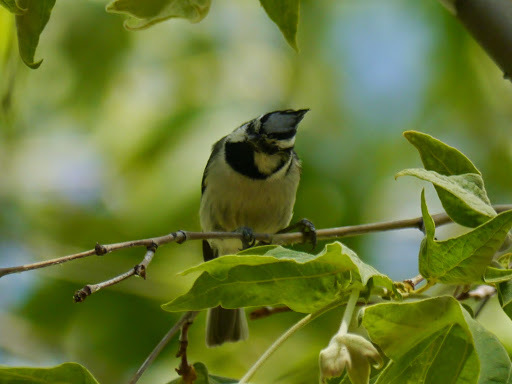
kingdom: Animalia
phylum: Chordata
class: Aves
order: Passeriformes
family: Paridae
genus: Baeolophus
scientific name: Baeolophus wollweberi
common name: Bridled titmouse
